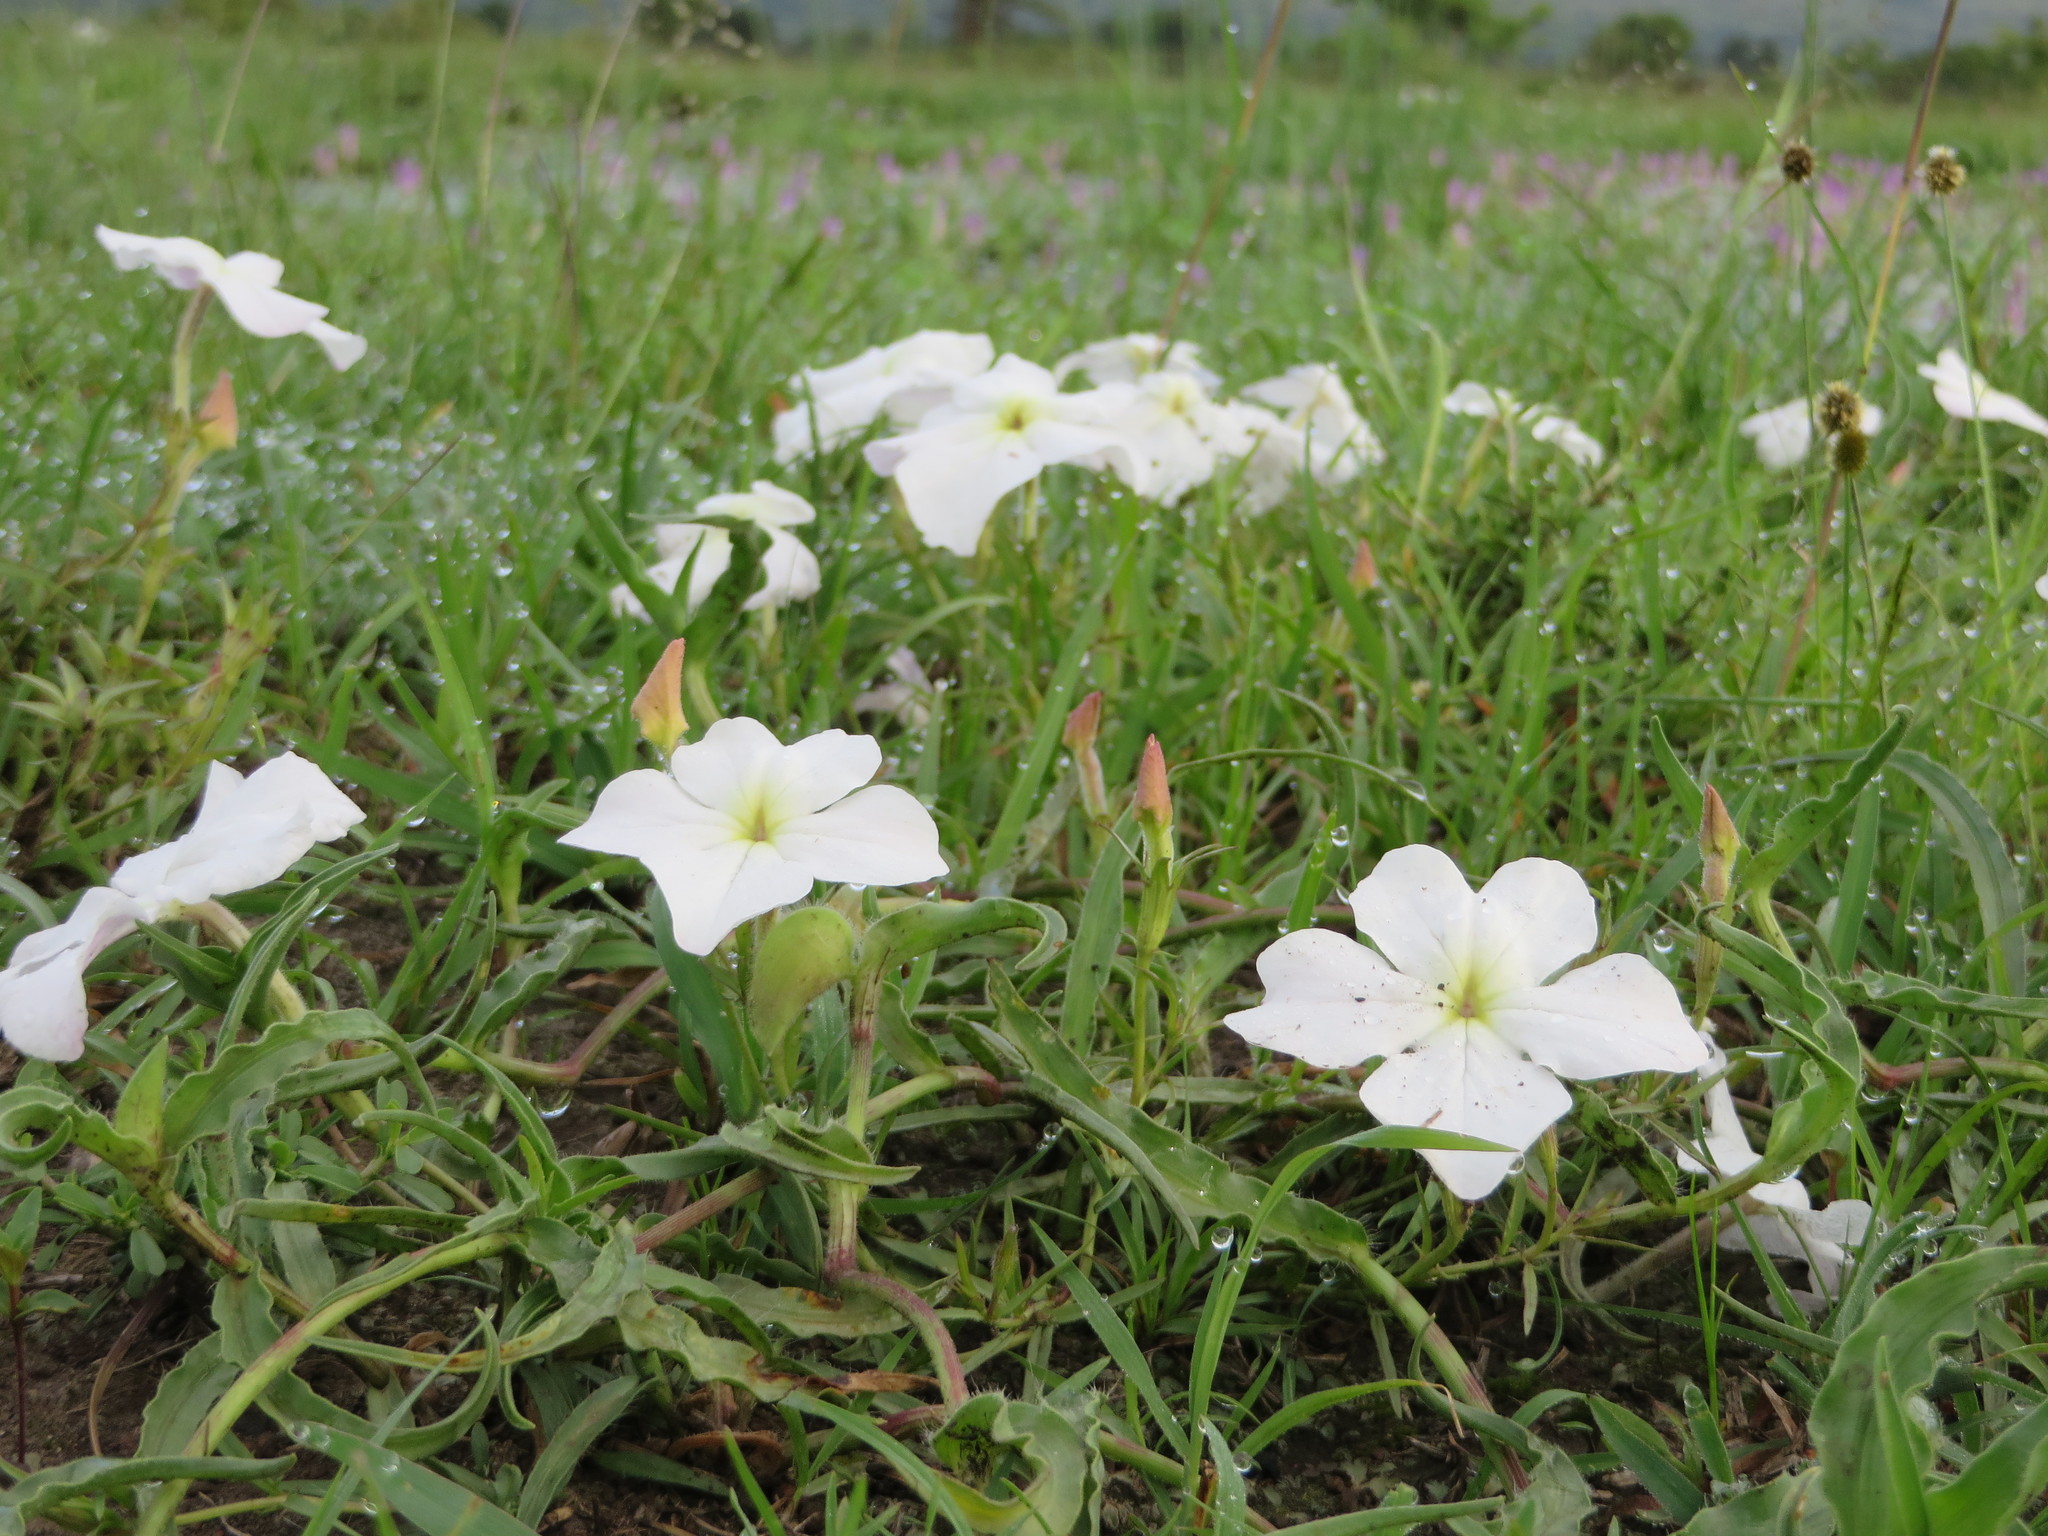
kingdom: Plantae
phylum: Tracheophyta
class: Magnoliopsida
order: Lamiales
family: Orobanchaceae
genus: Cycnium
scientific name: Cycnium tubulosum
